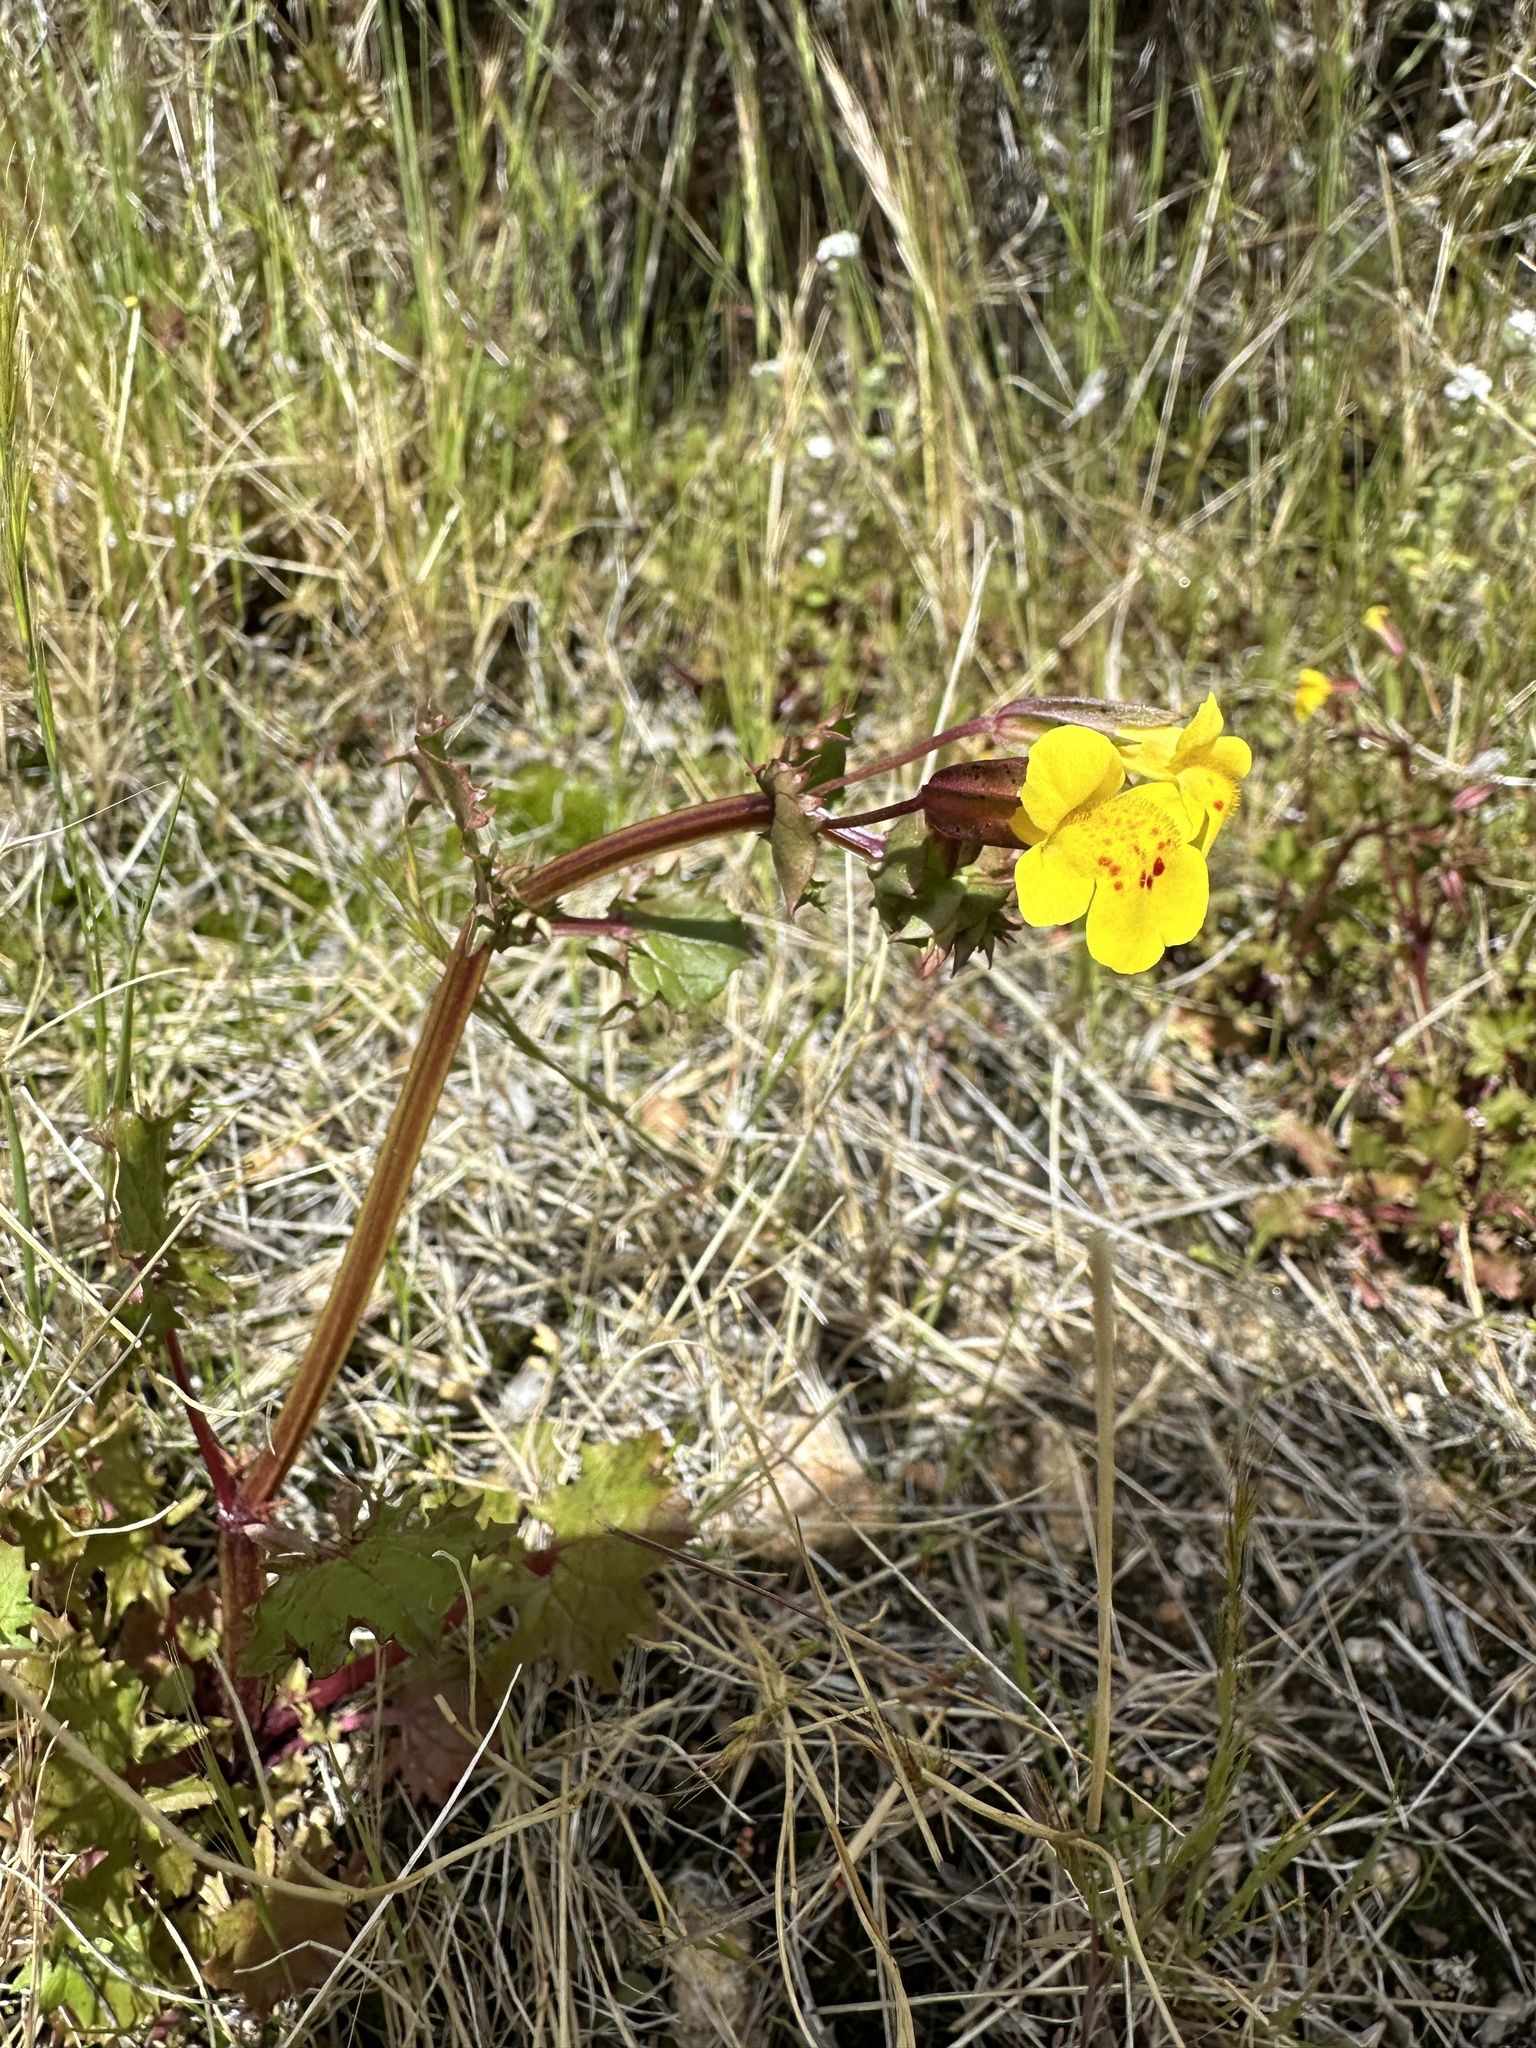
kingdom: Plantae
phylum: Tracheophyta
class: Magnoliopsida
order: Lamiales
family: Phrymaceae
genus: Erythranthe
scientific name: Erythranthe nasuta
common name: Sooke monkeyflower
